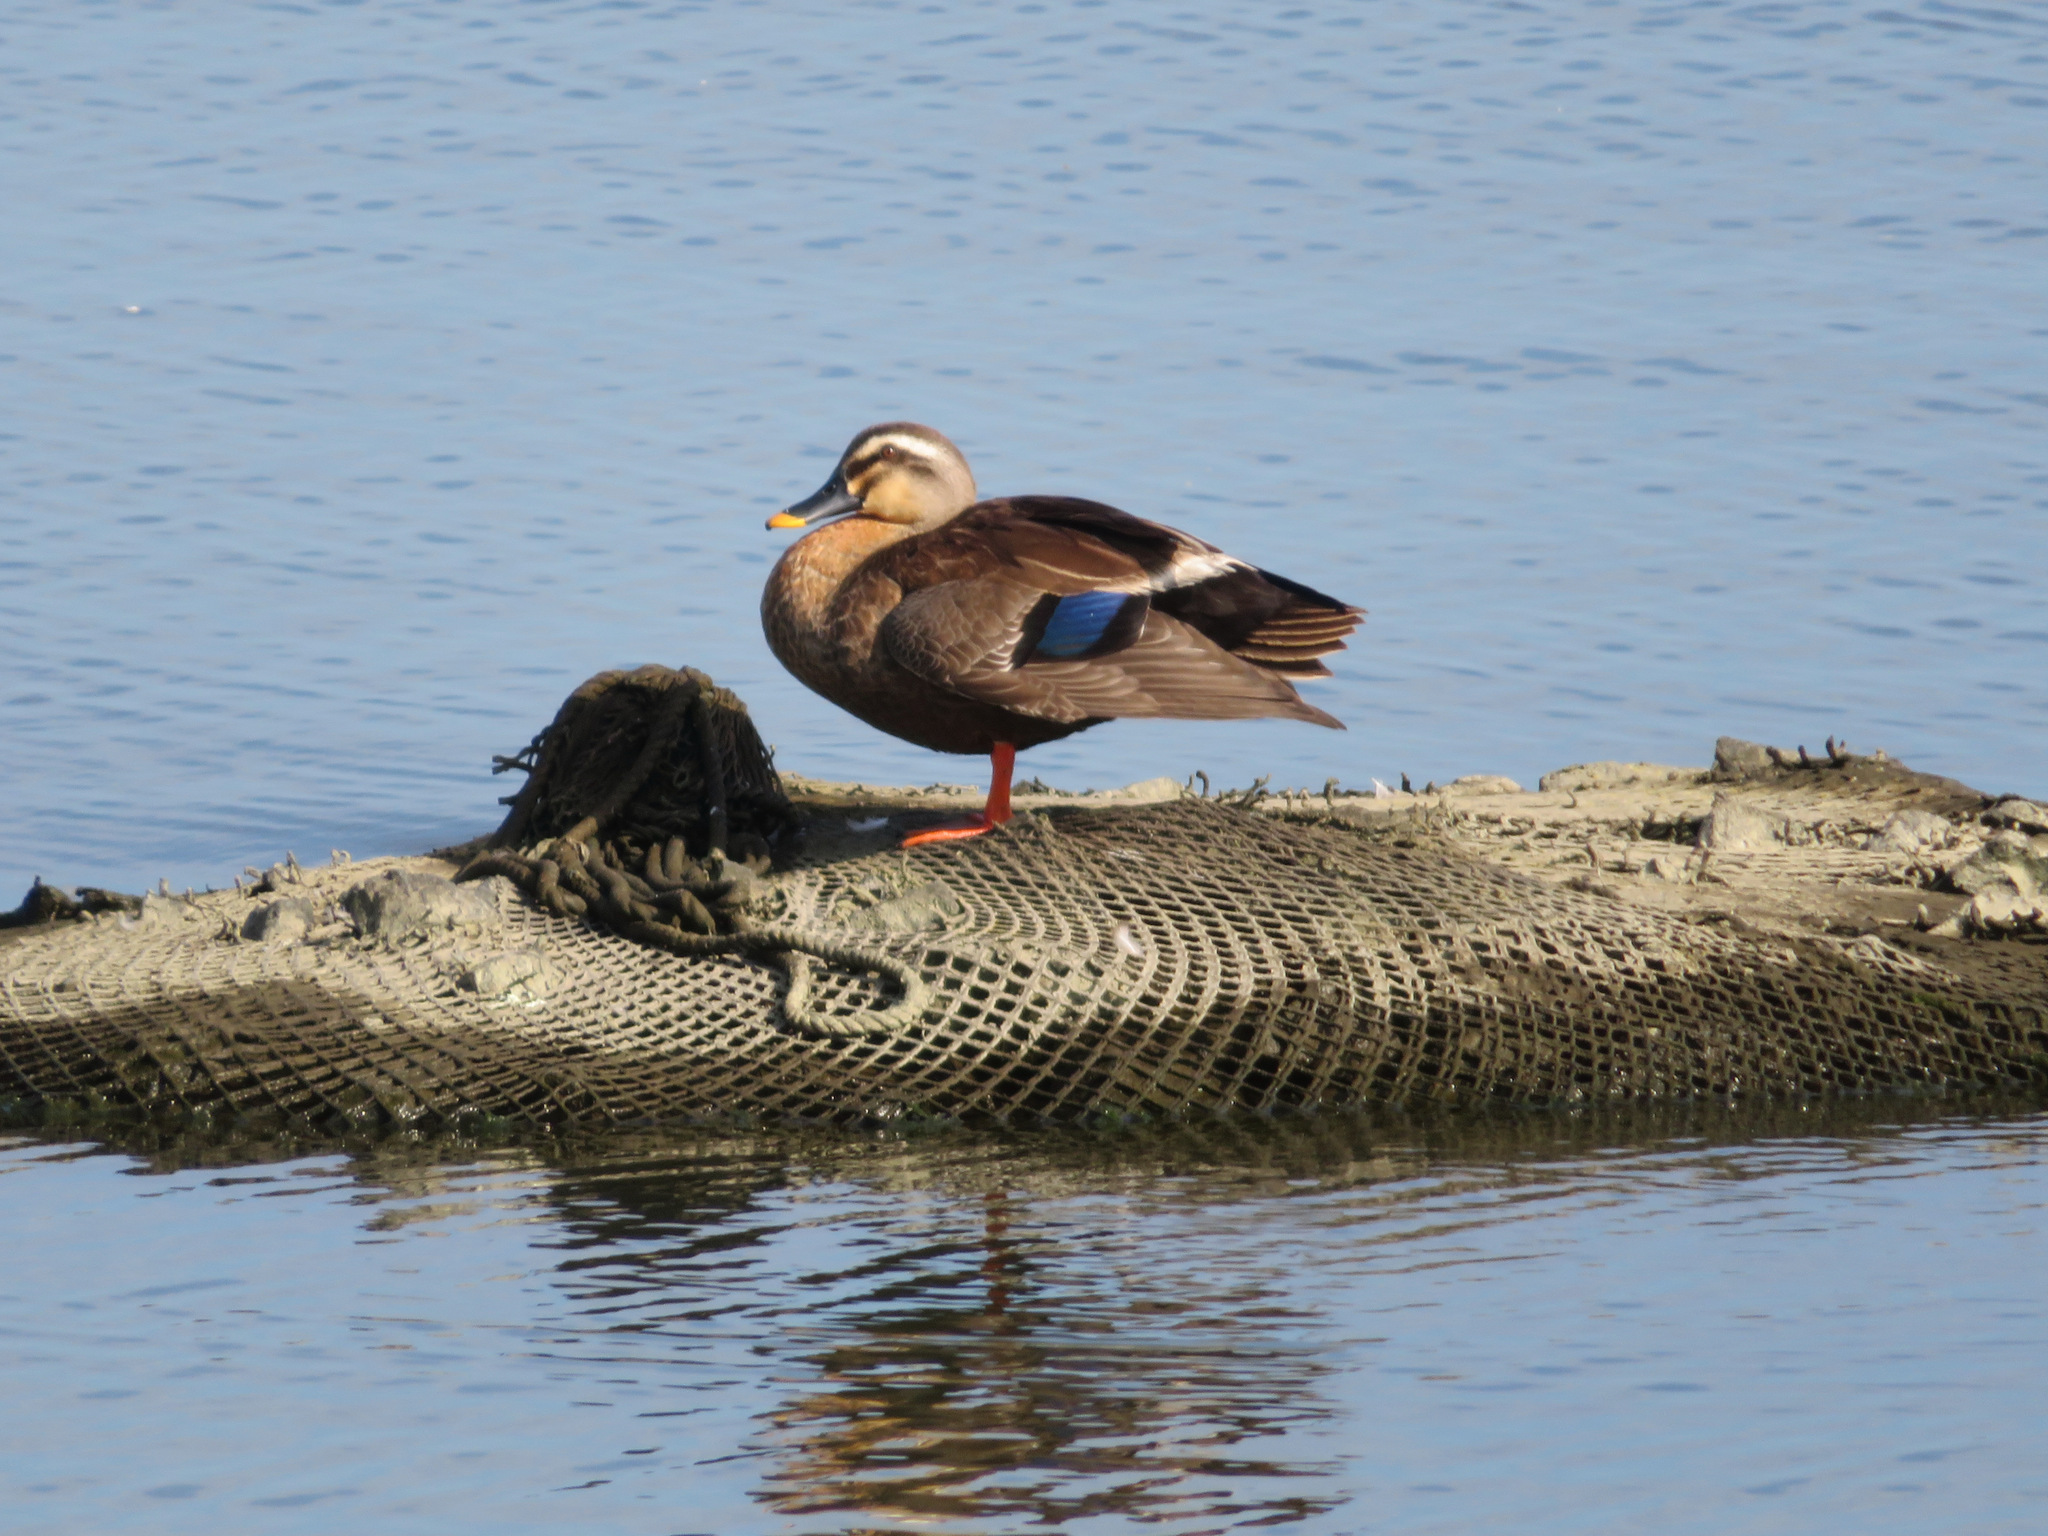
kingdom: Animalia
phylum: Chordata
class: Aves
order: Anseriformes
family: Anatidae
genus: Anas
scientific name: Anas zonorhyncha
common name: Eastern spot-billed duck
